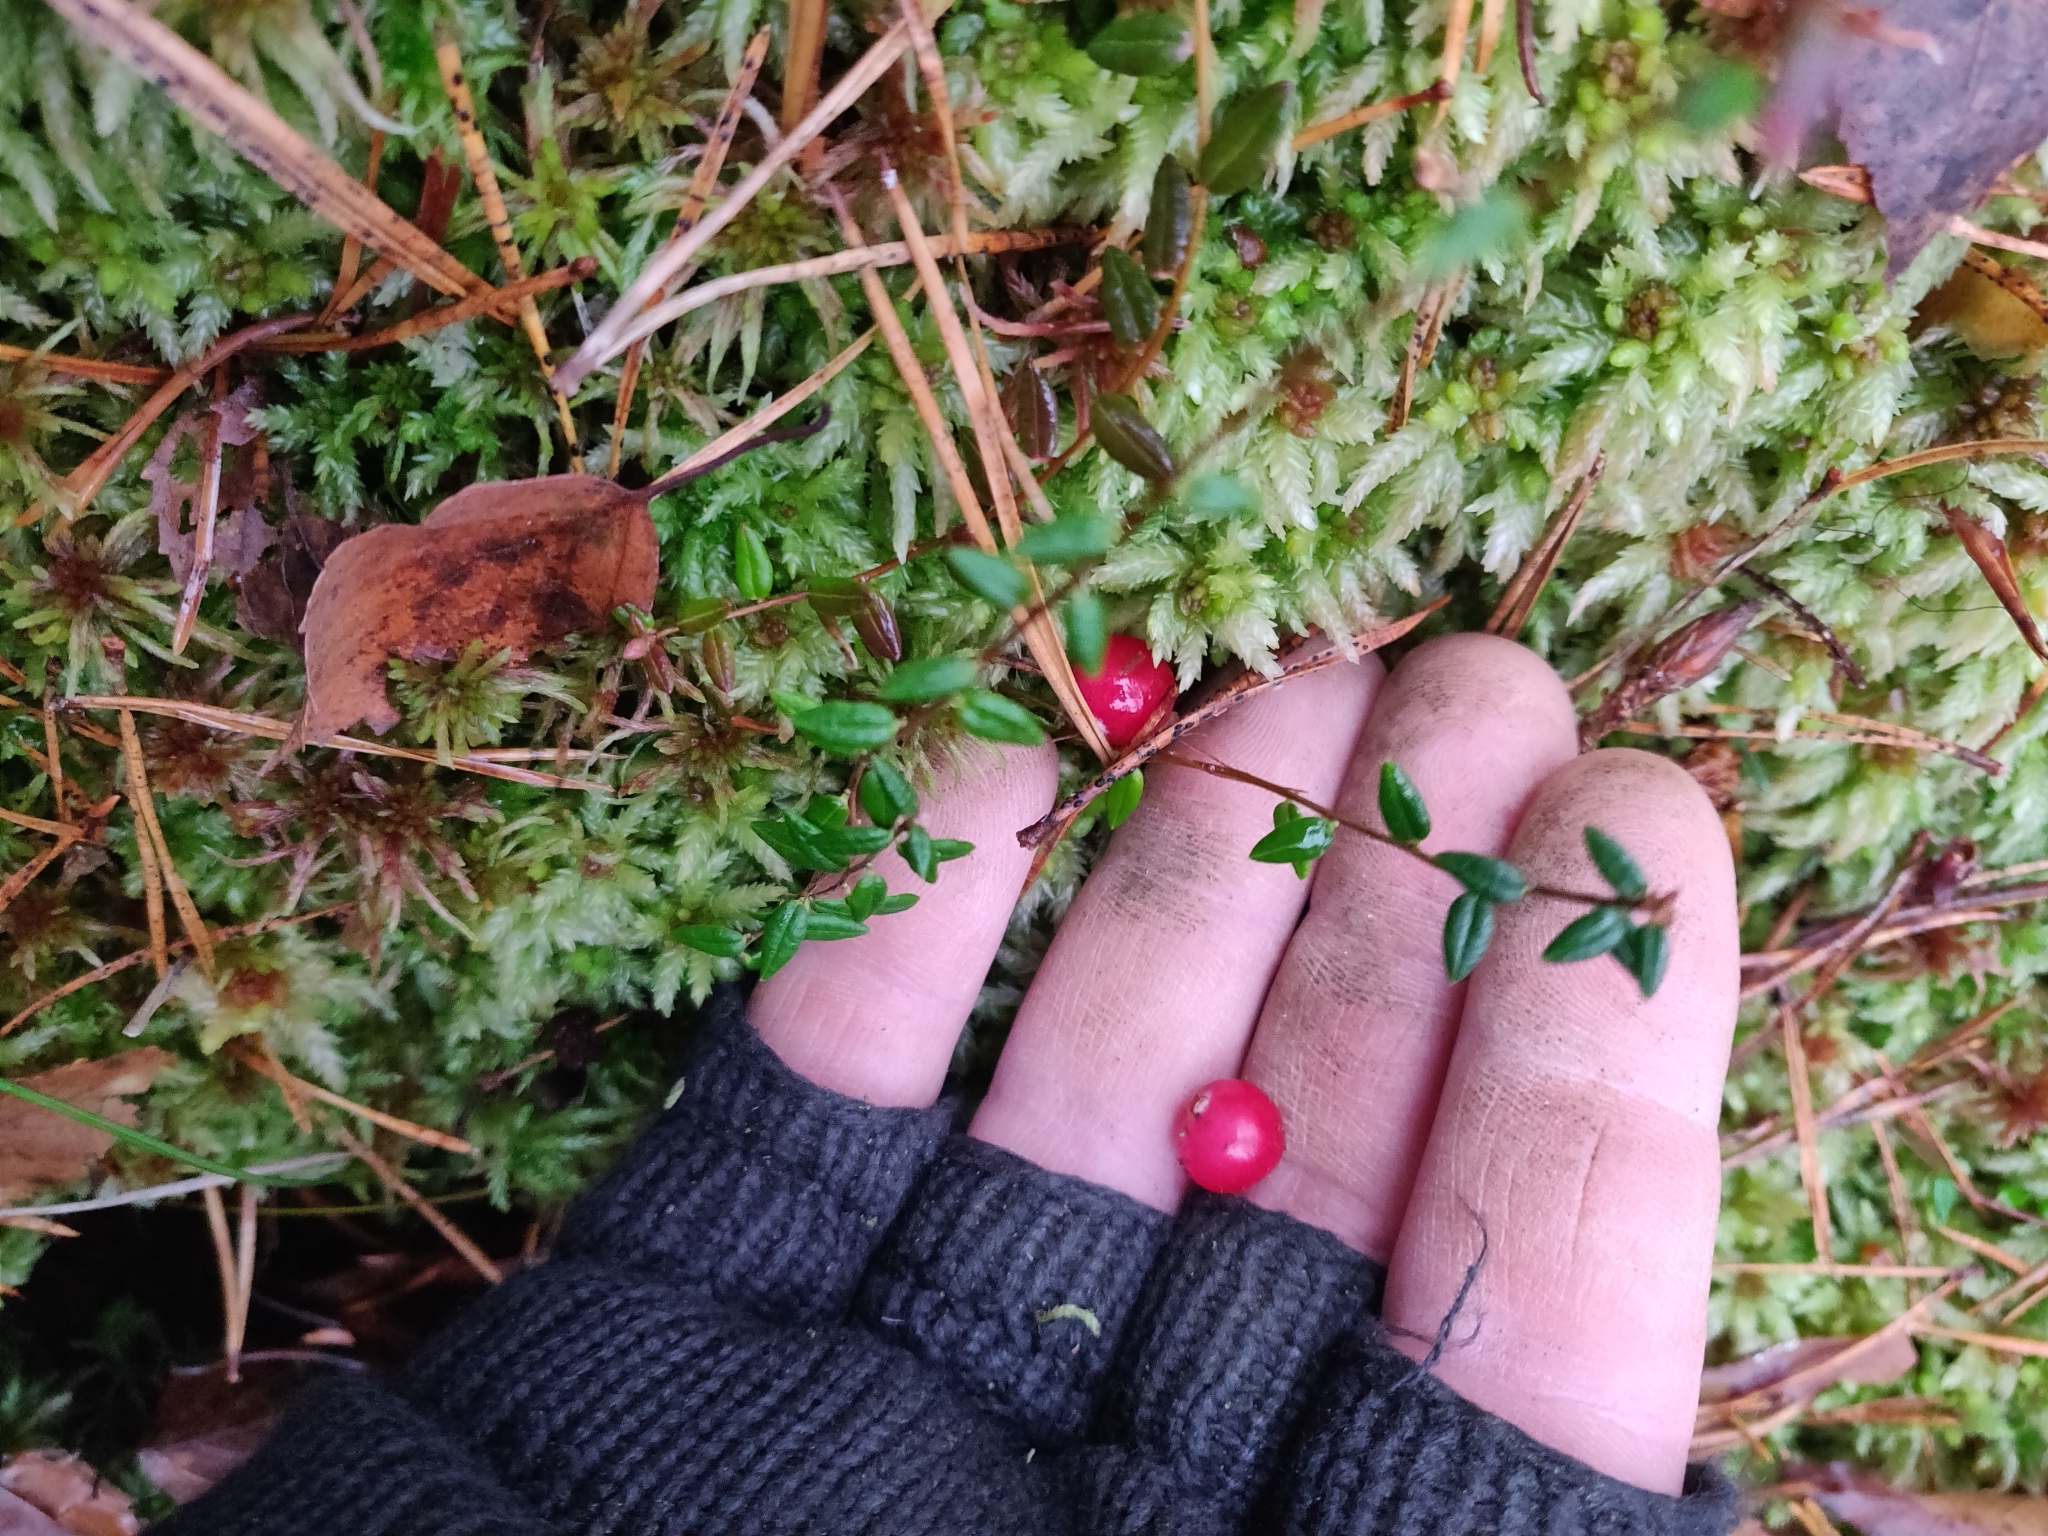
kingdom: Plantae
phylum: Tracheophyta
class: Magnoliopsida
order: Ericales
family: Ericaceae
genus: Vaccinium
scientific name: Vaccinium oxycoccos
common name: Cranberry
